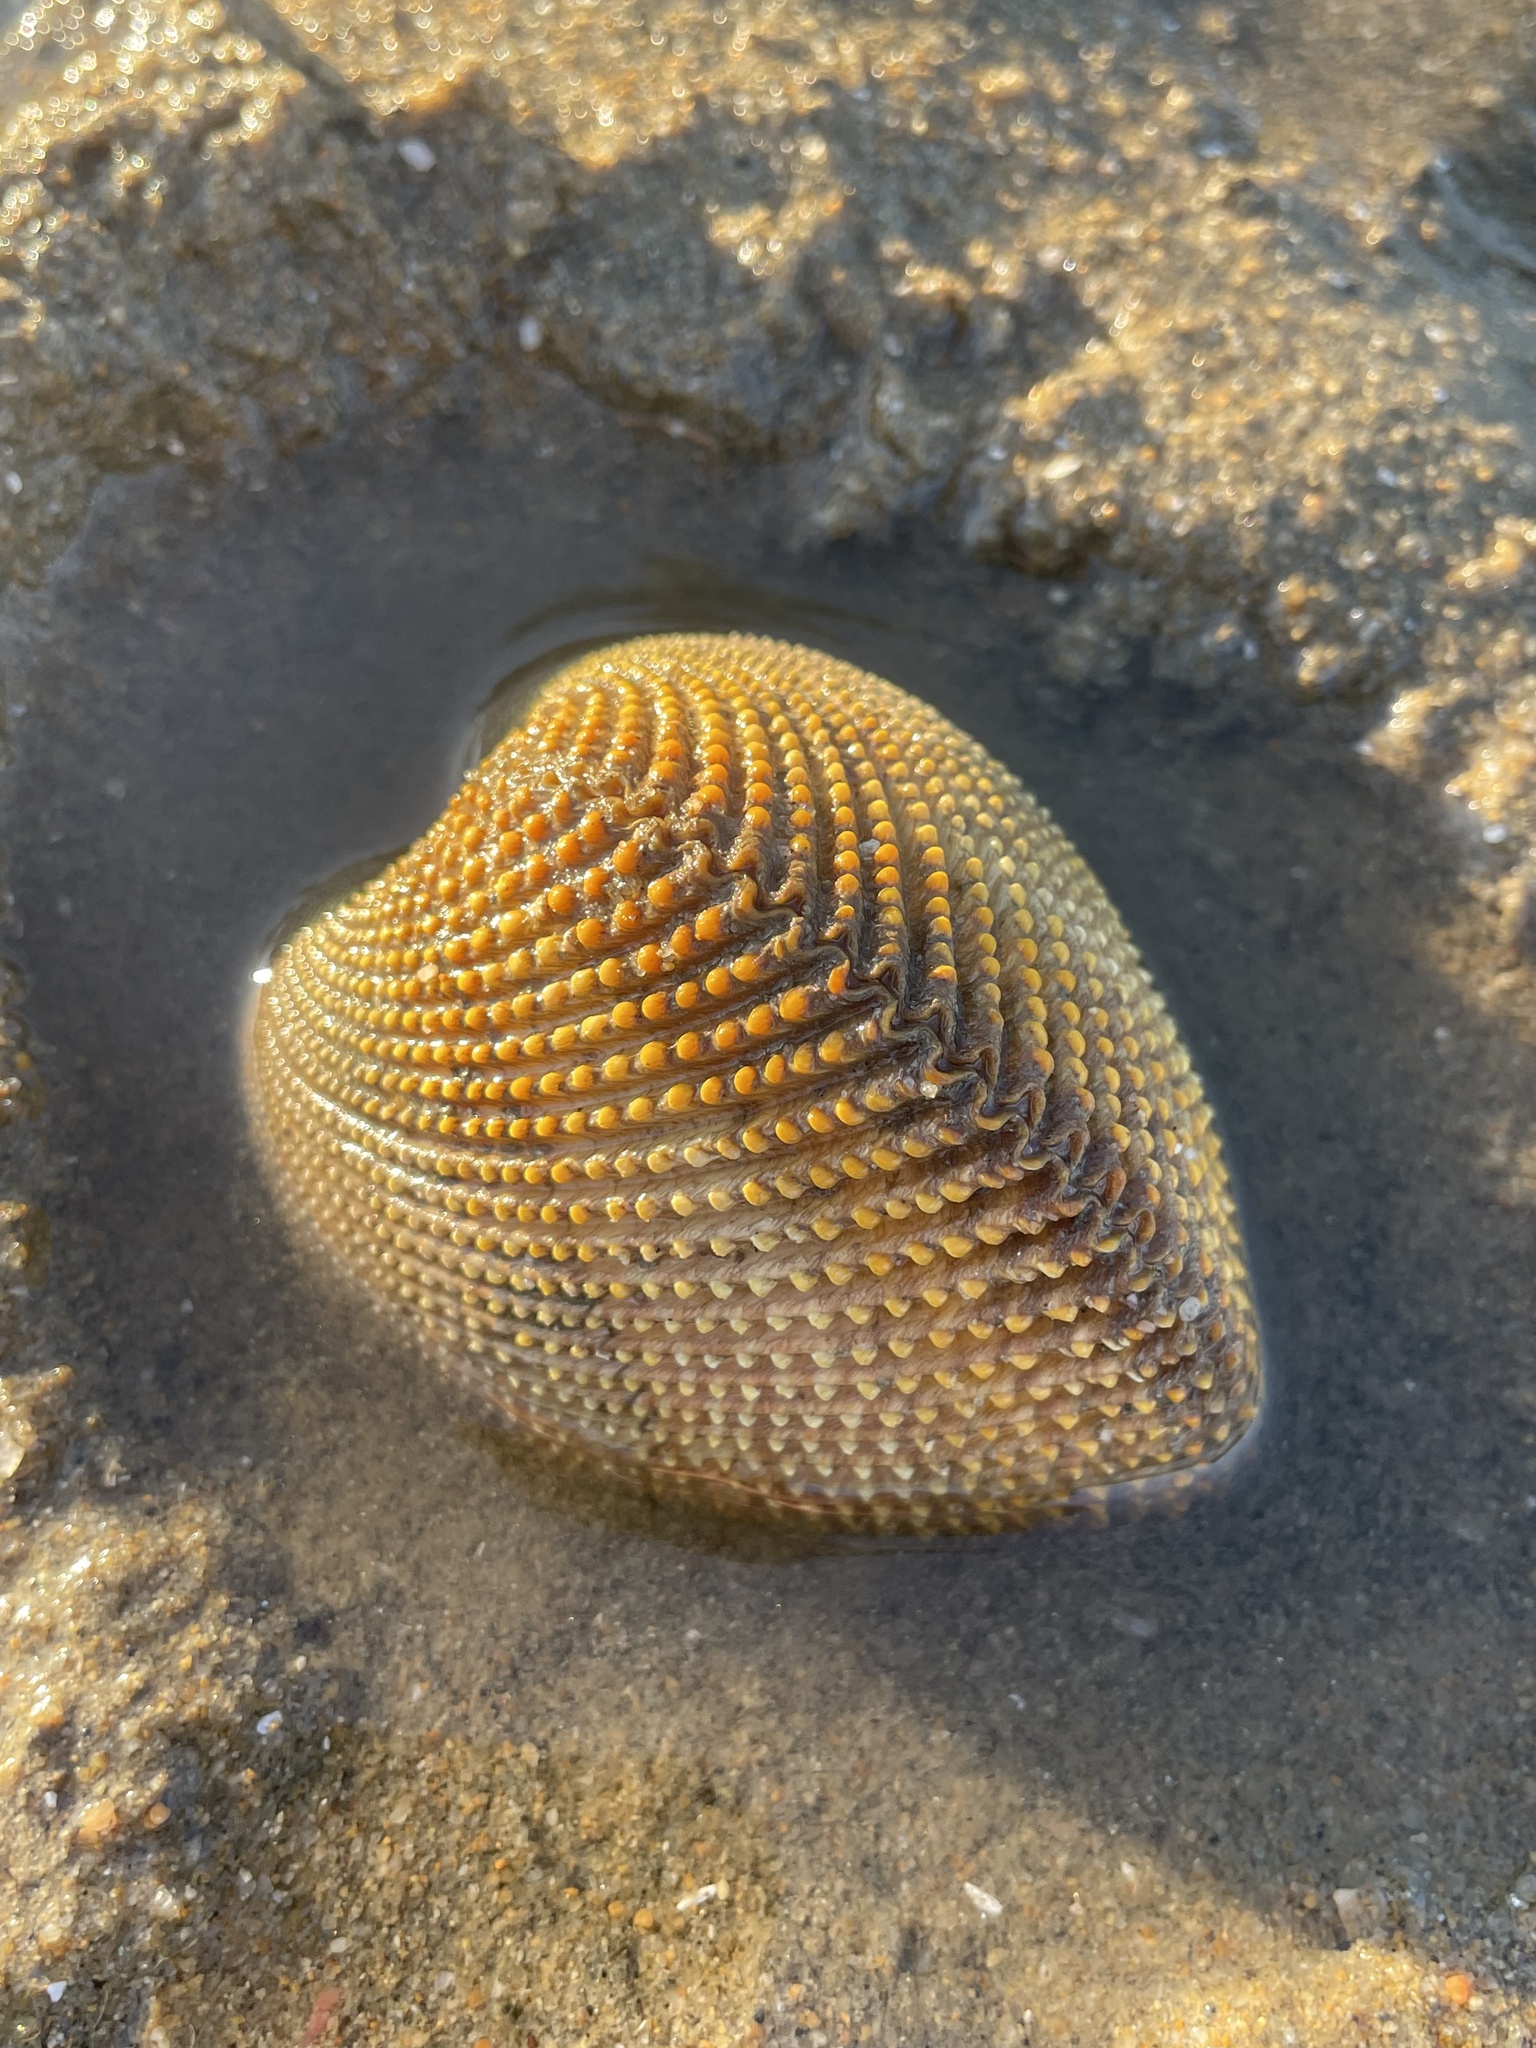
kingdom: Animalia
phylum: Mollusca
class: Bivalvia
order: Cardiida
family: Cardiidae
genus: Dallocardia
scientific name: Dallocardia quadragenaria
